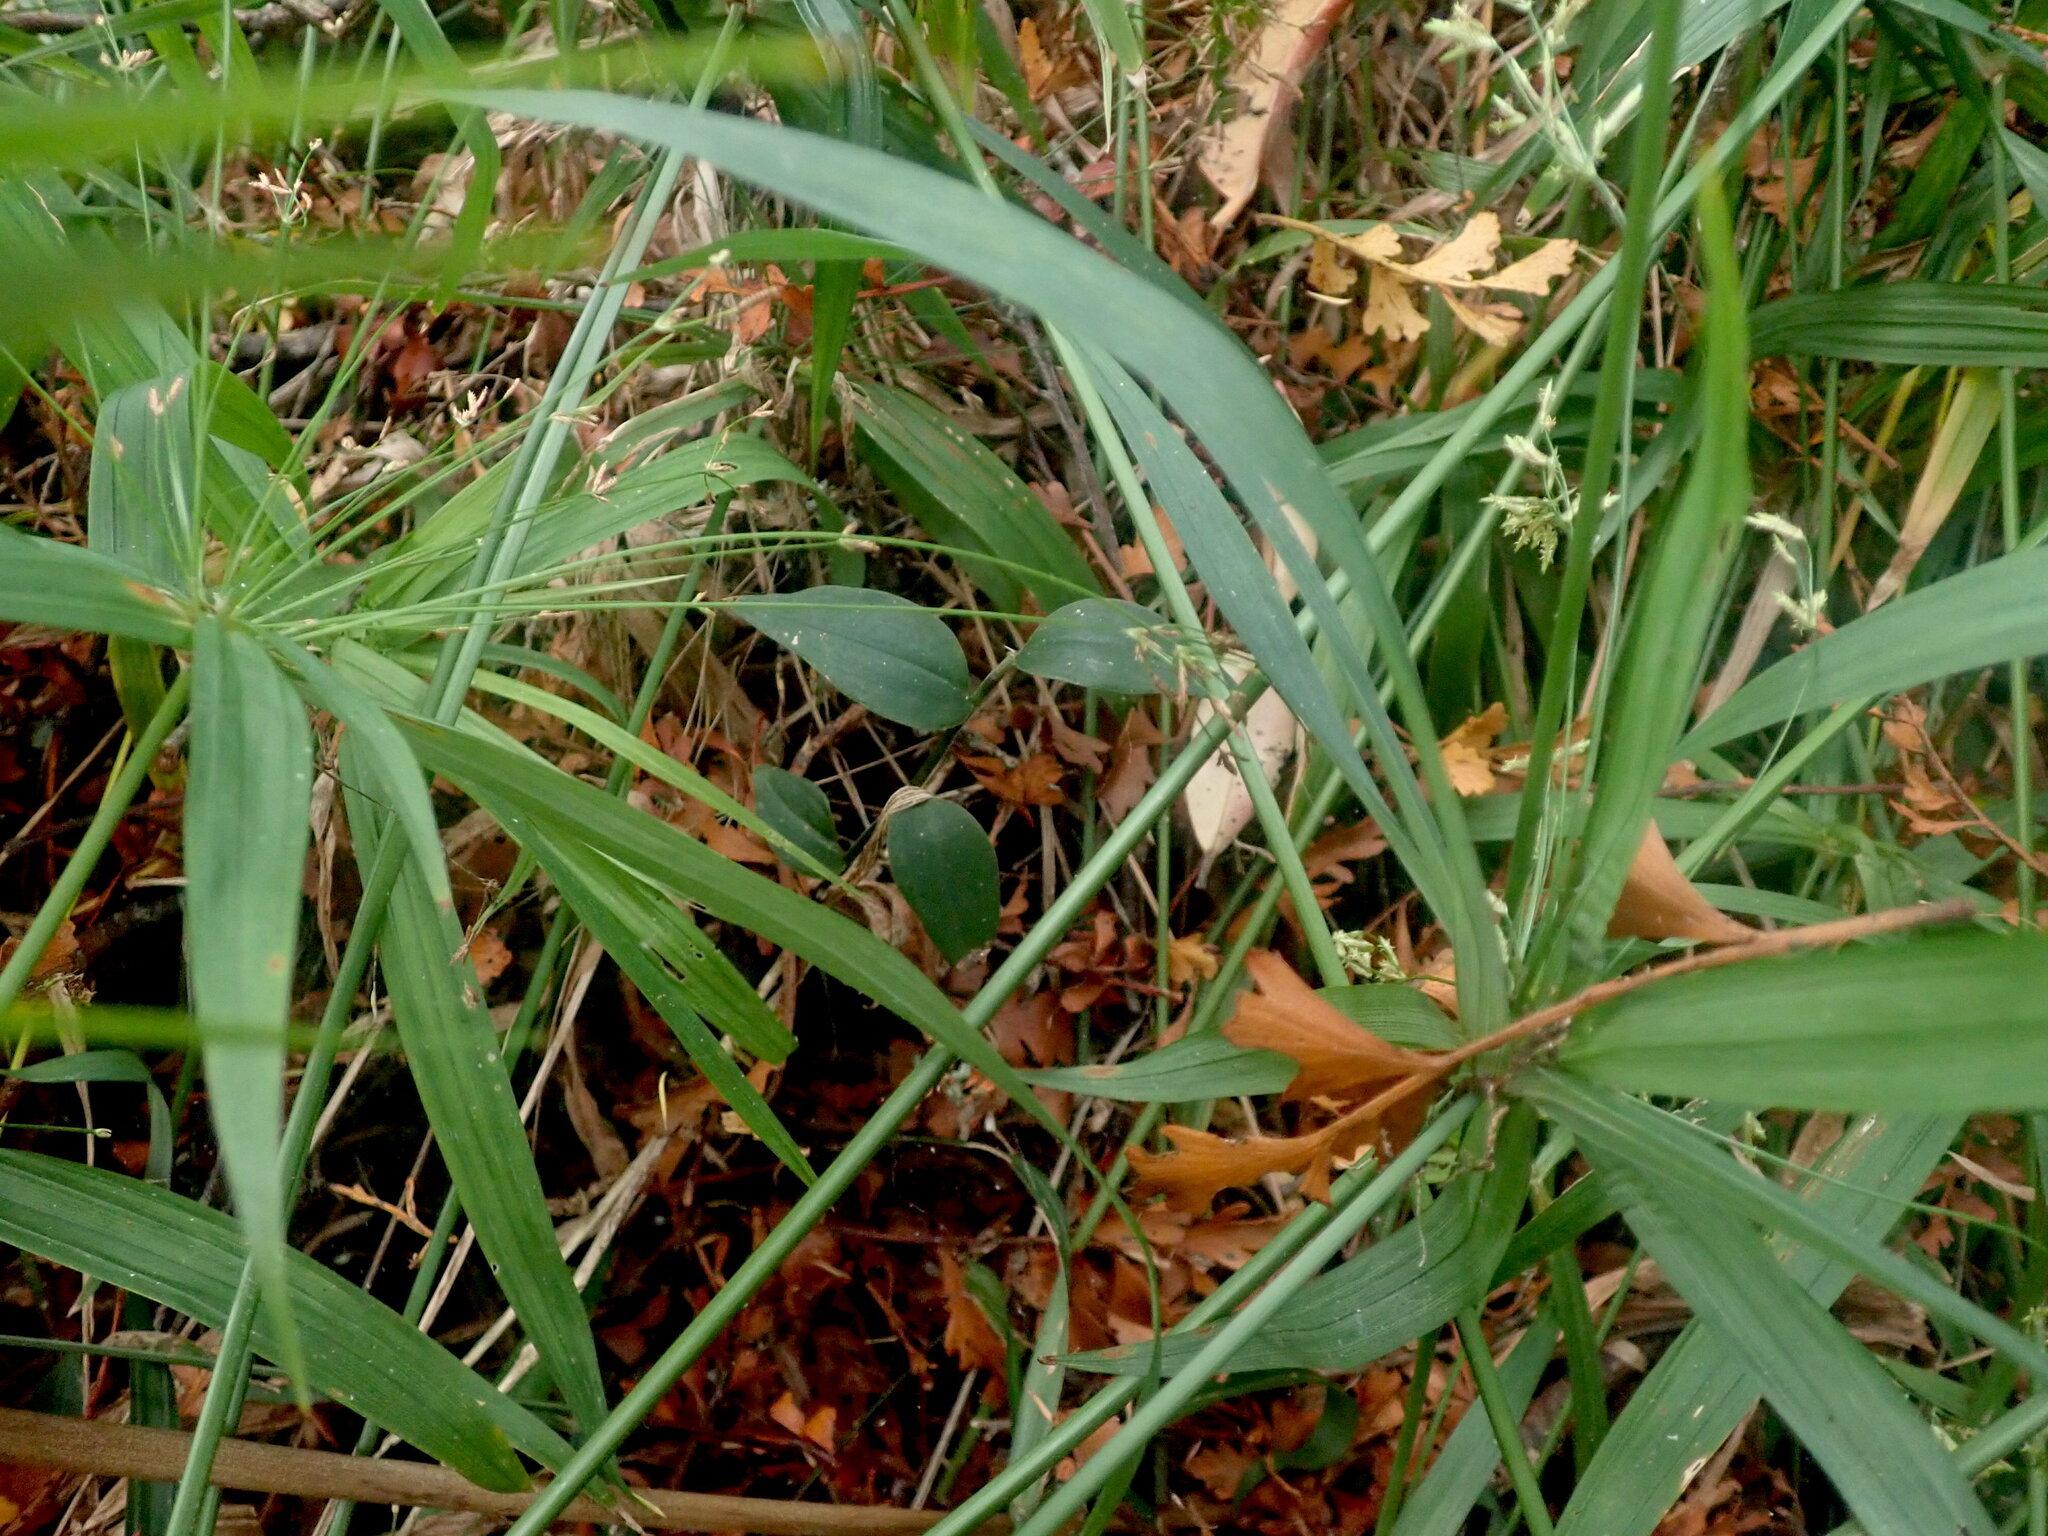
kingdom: Plantae
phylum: Tracheophyta
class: Liliopsida
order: Commelinales
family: Commelinaceae
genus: Tradescantia
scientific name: Tradescantia fluminensis
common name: Wandering-jew
